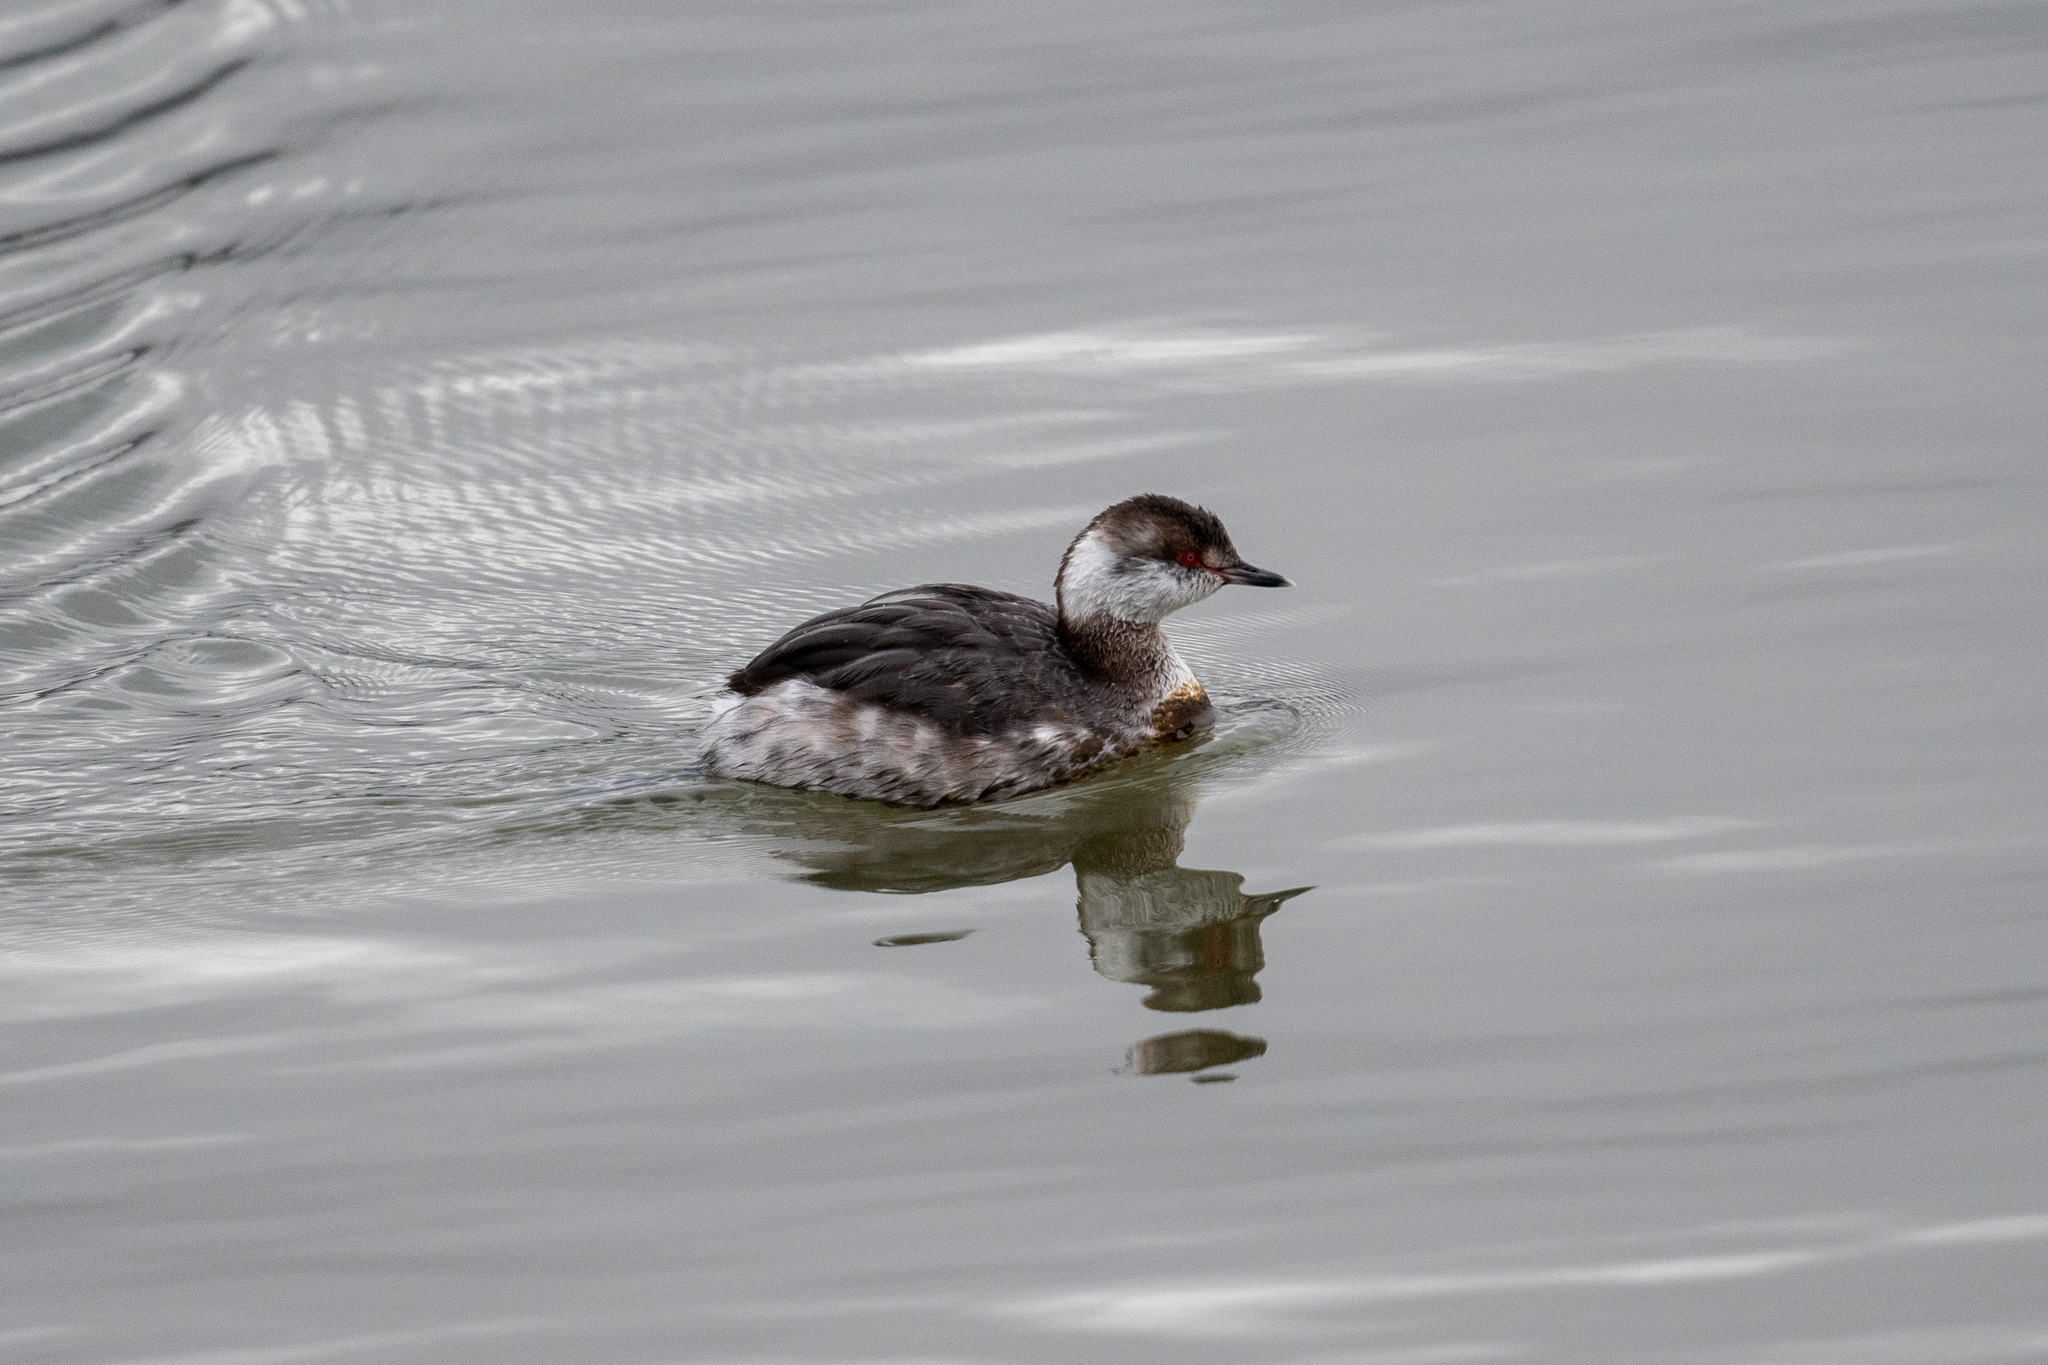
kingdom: Animalia
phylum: Chordata
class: Aves
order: Podicipediformes
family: Podicipedidae
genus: Podiceps
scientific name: Podiceps auritus
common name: Horned grebe
